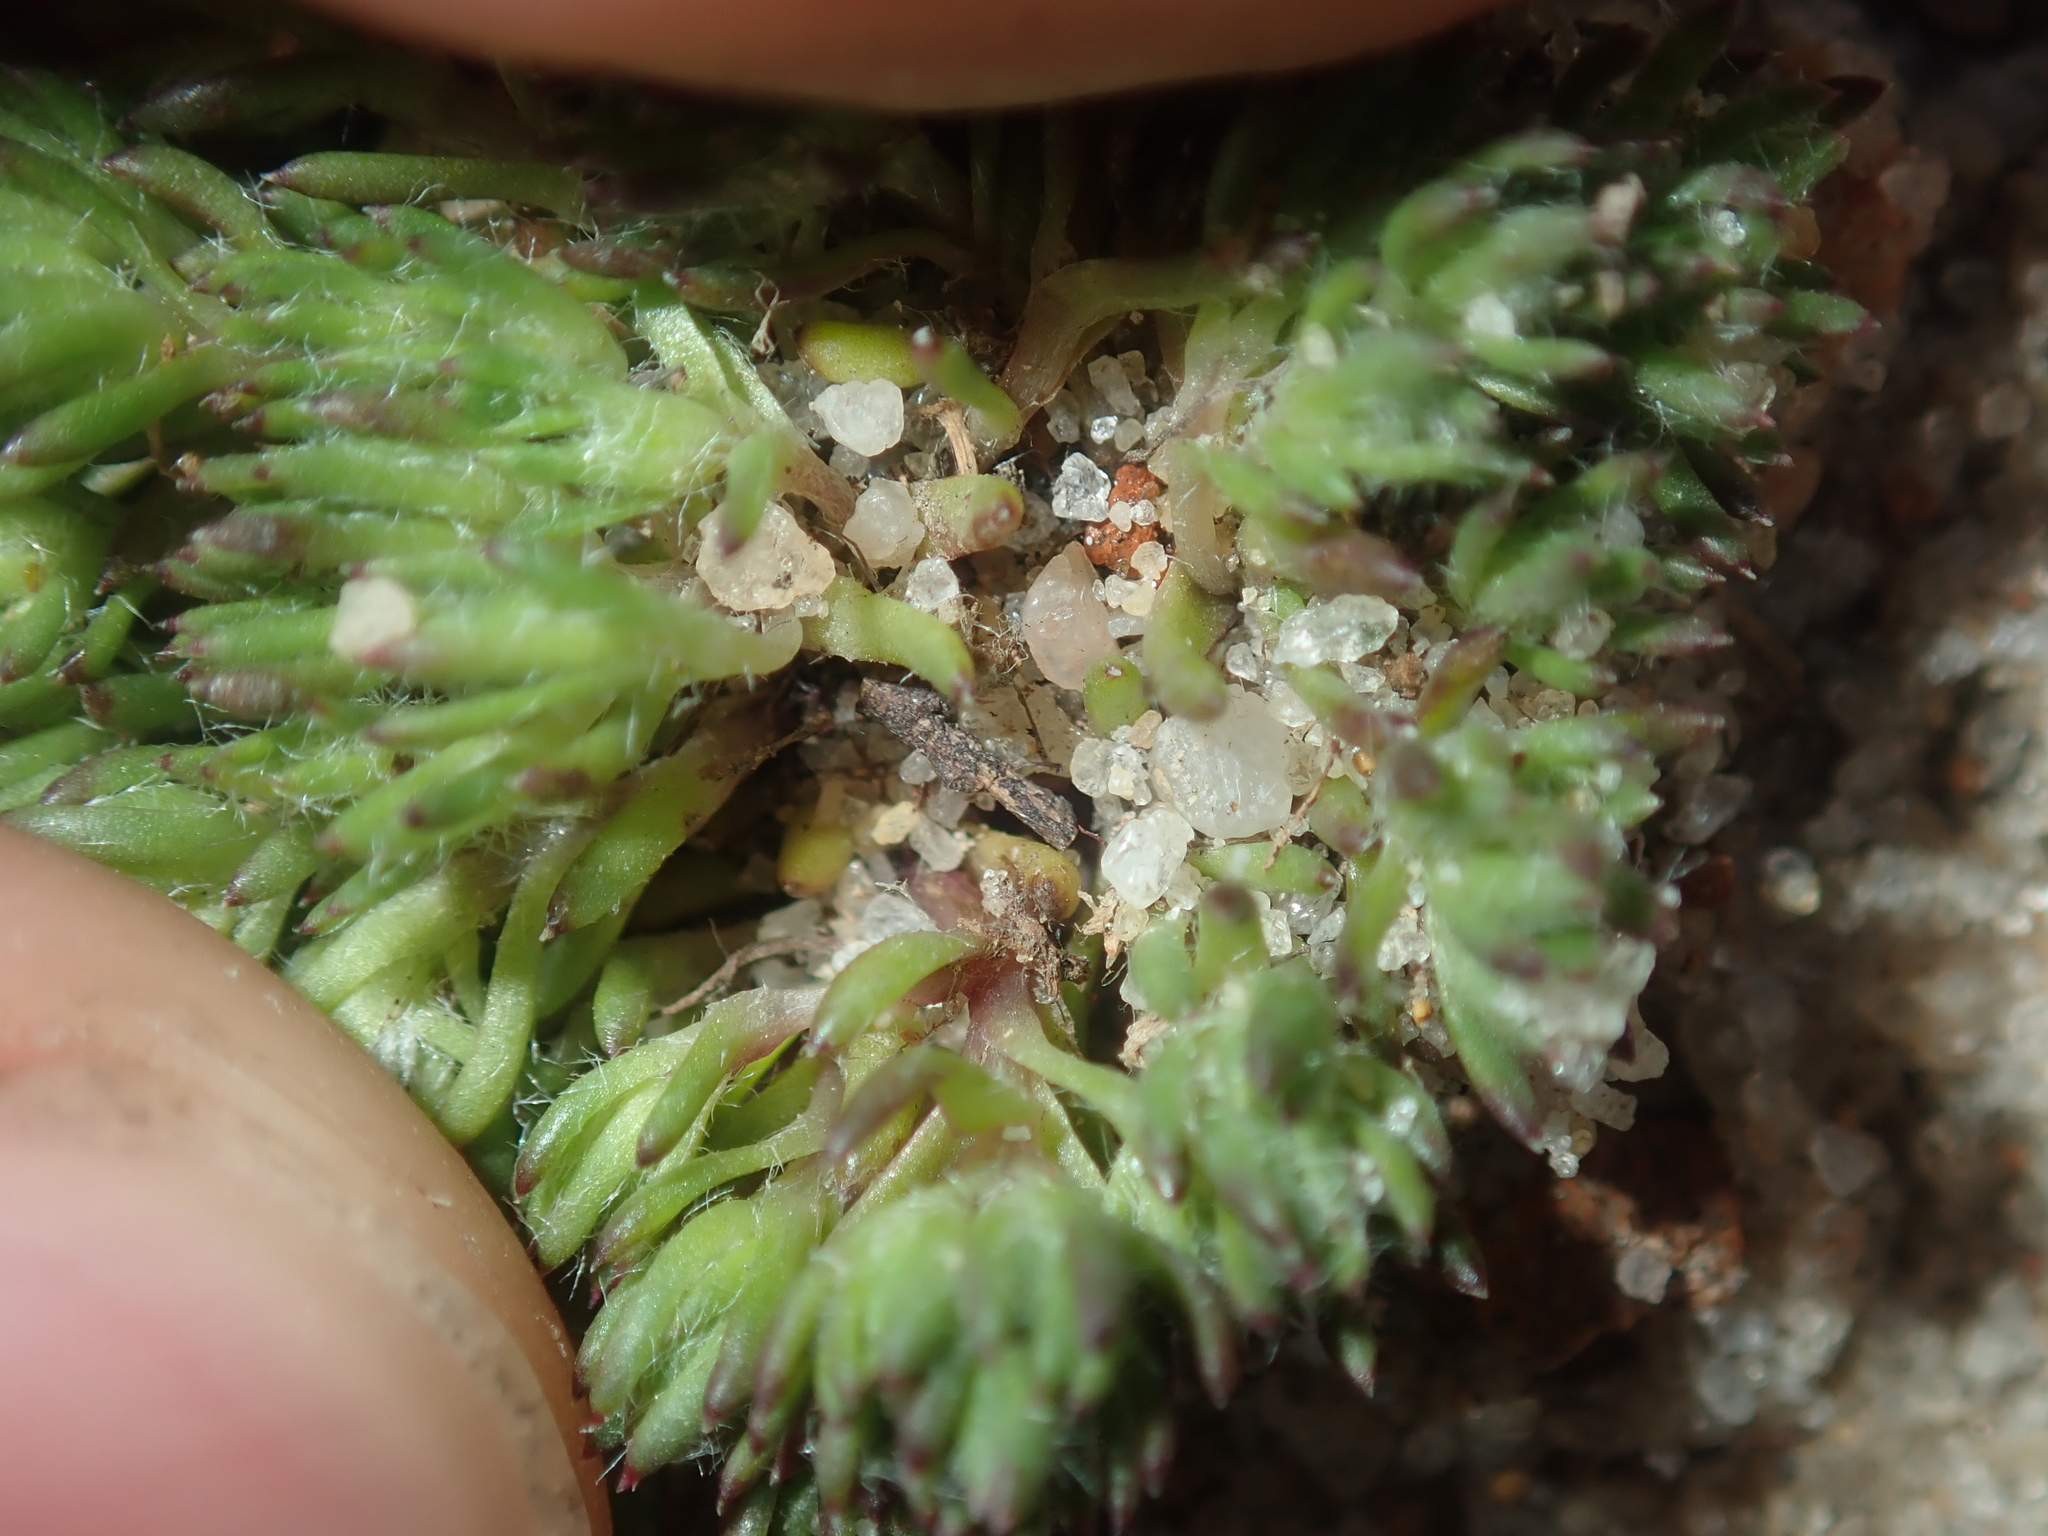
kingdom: Plantae
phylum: Tracheophyta
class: Magnoliopsida
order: Asterales
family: Asteraceae
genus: Hyalosperma
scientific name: Hyalosperma demissum
